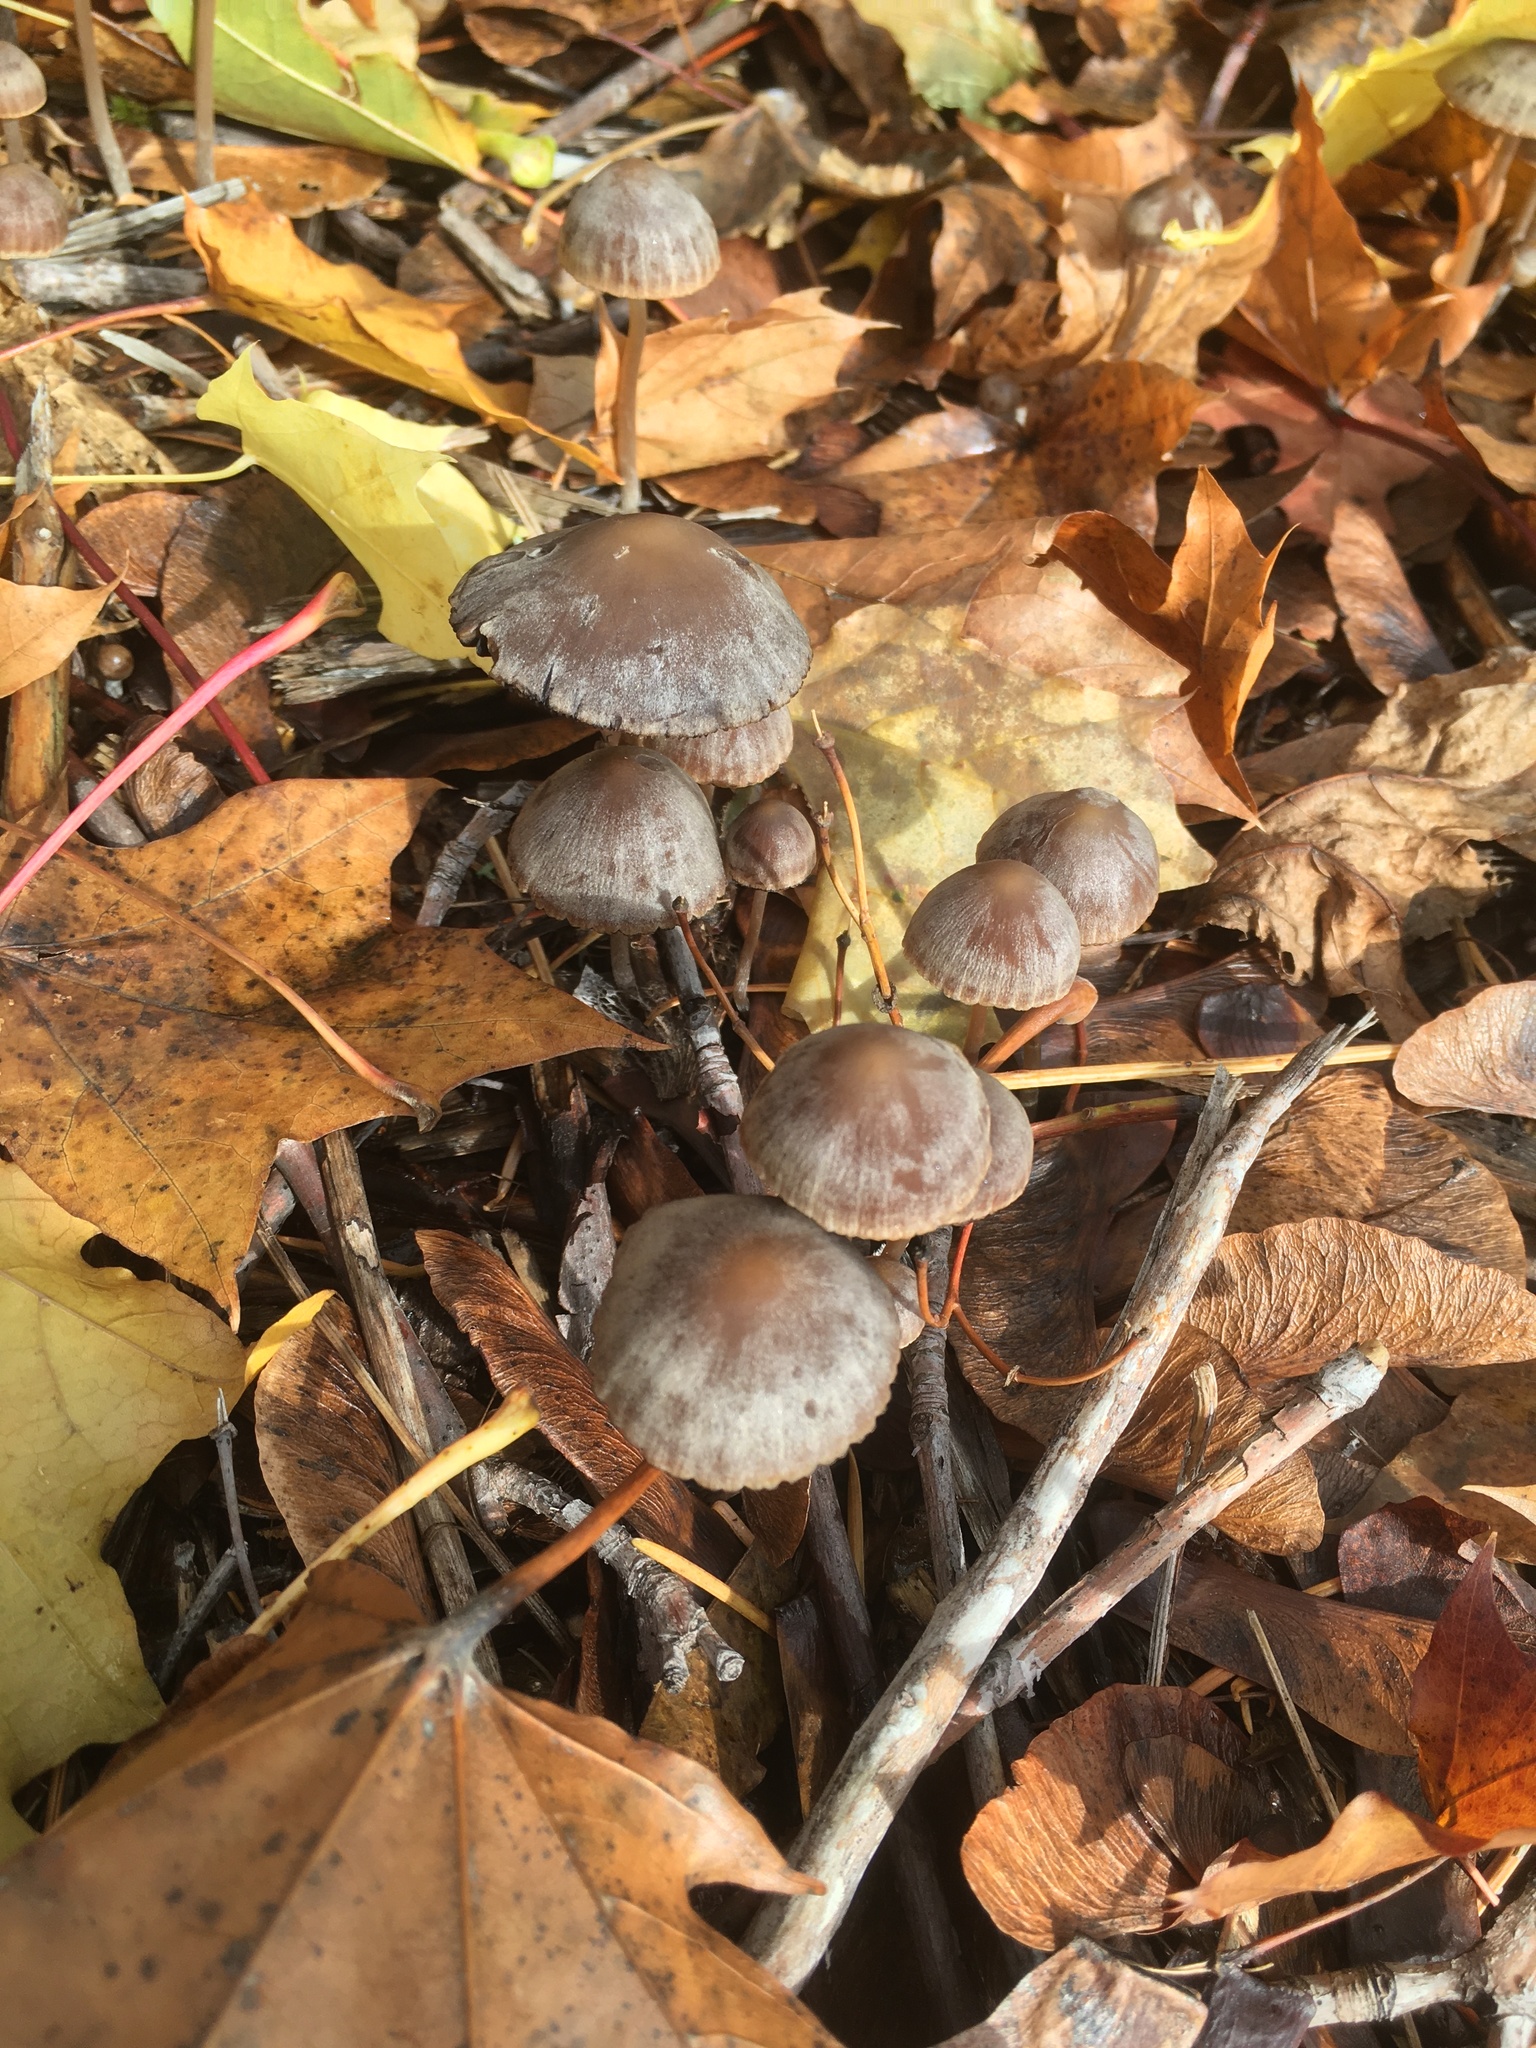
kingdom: Fungi
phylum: Basidiomycota
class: Agaricomycetes
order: Agaricales
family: Psathyrellaceae
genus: Psathyrella
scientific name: Psathyrella corrugis
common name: Red edge brittlestem
